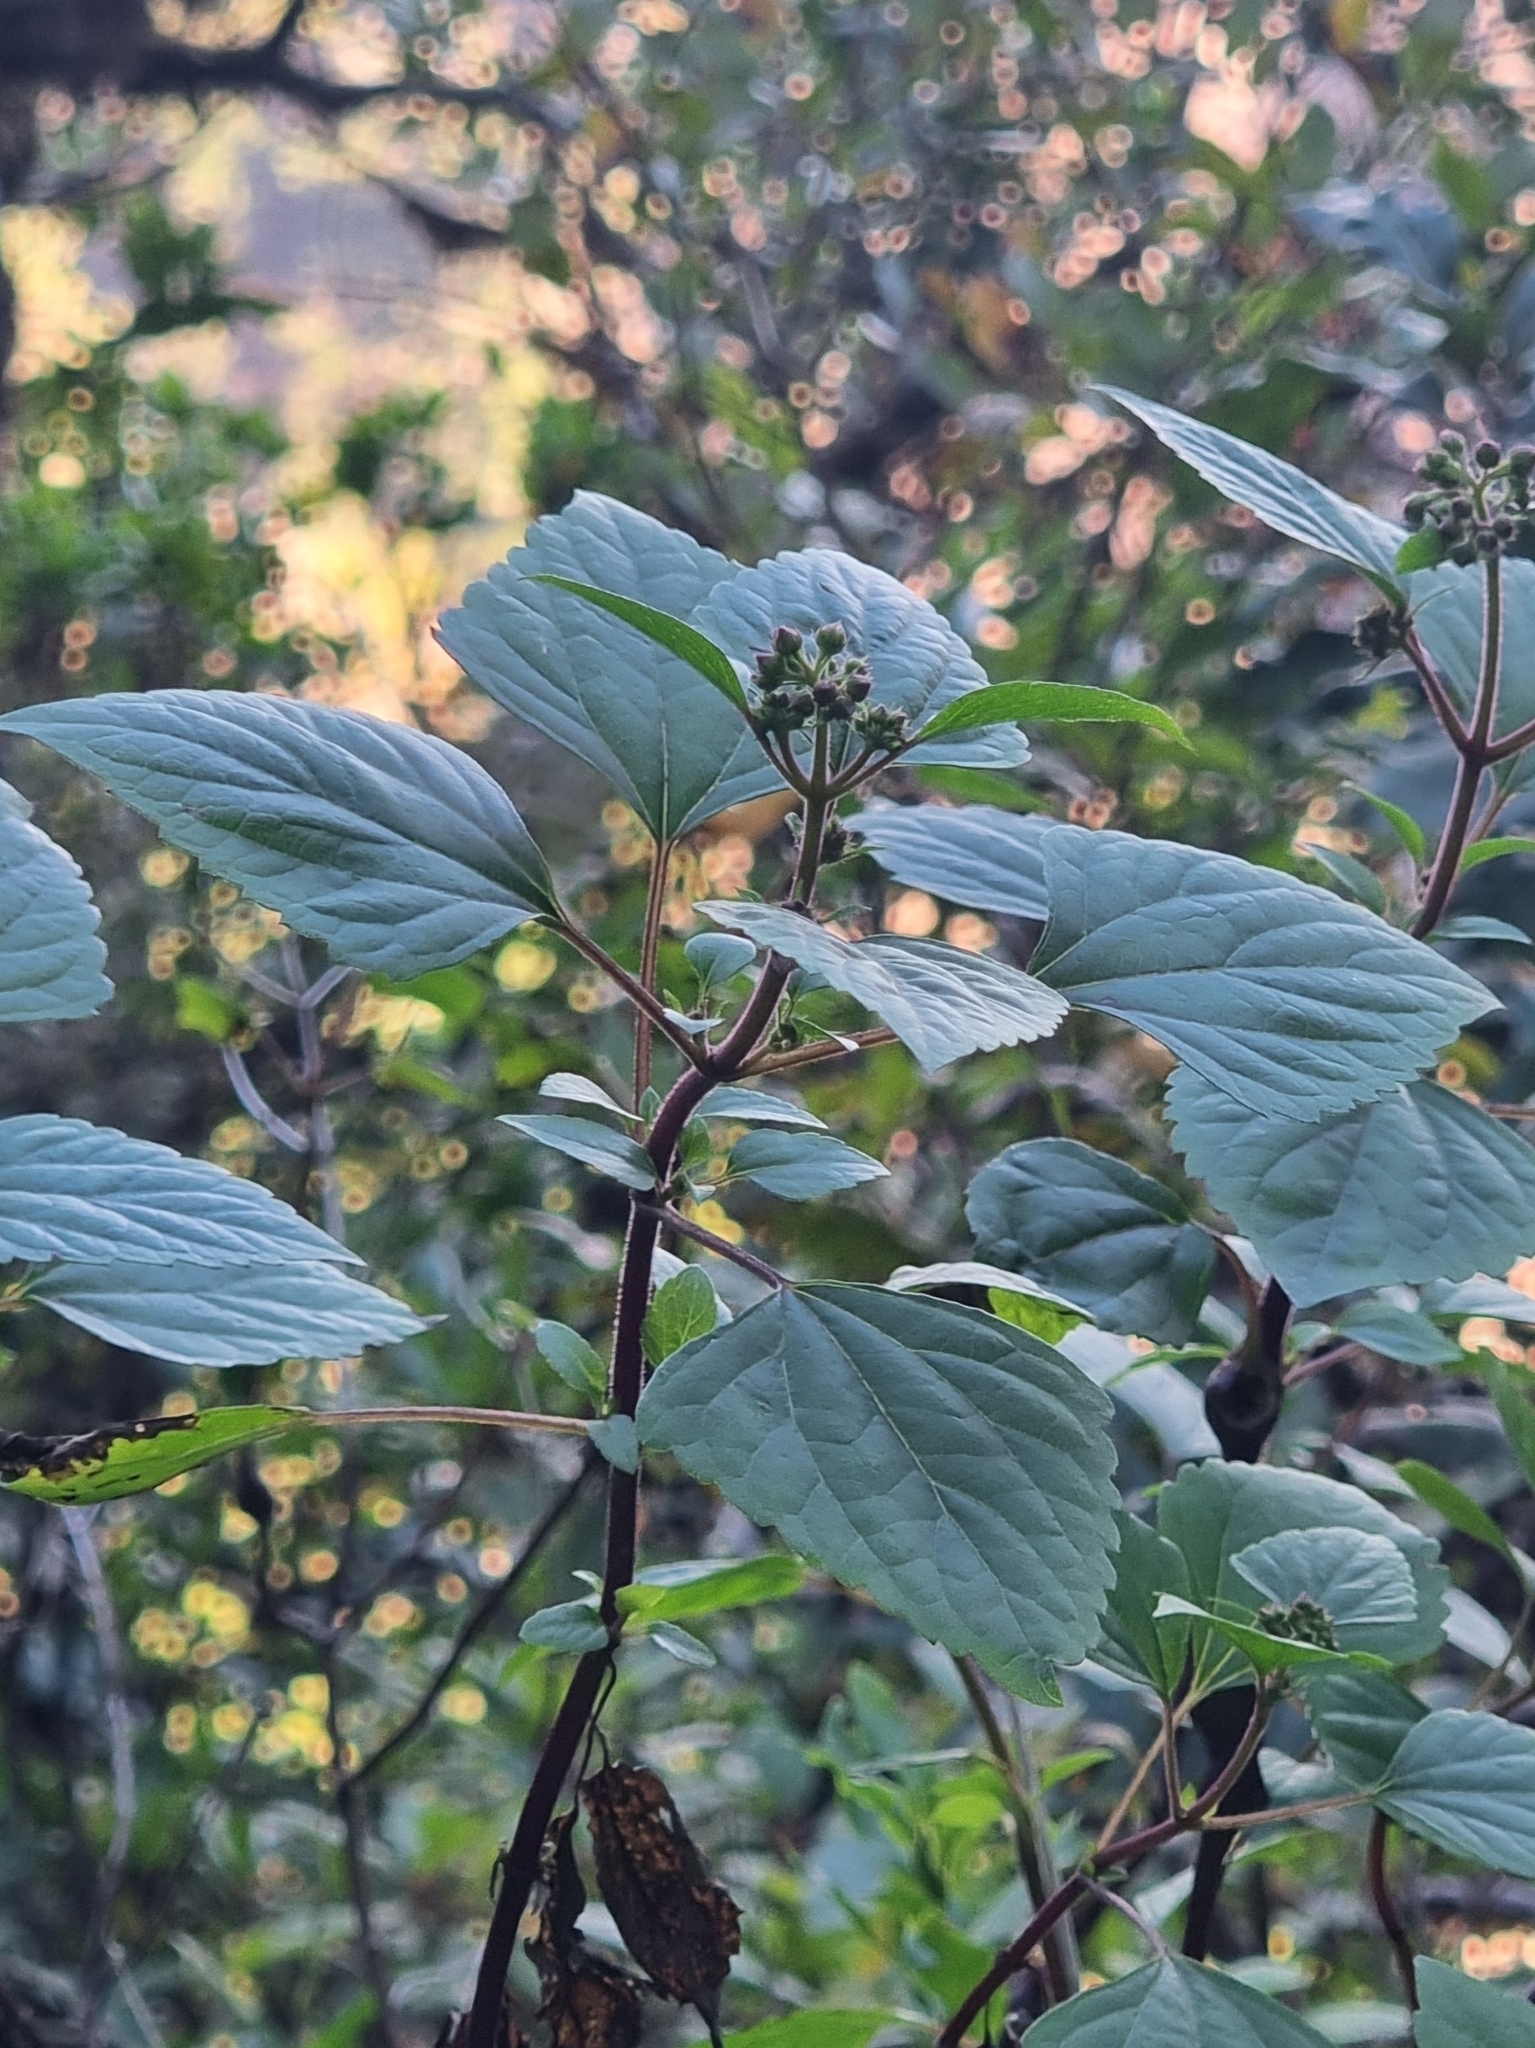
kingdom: Plantae
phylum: Tracheophyta
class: Magnoliopsida
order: Asterales
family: Asteraceae
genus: Ageratina
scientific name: Ageratina adenophora
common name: Sticky snakeroot
